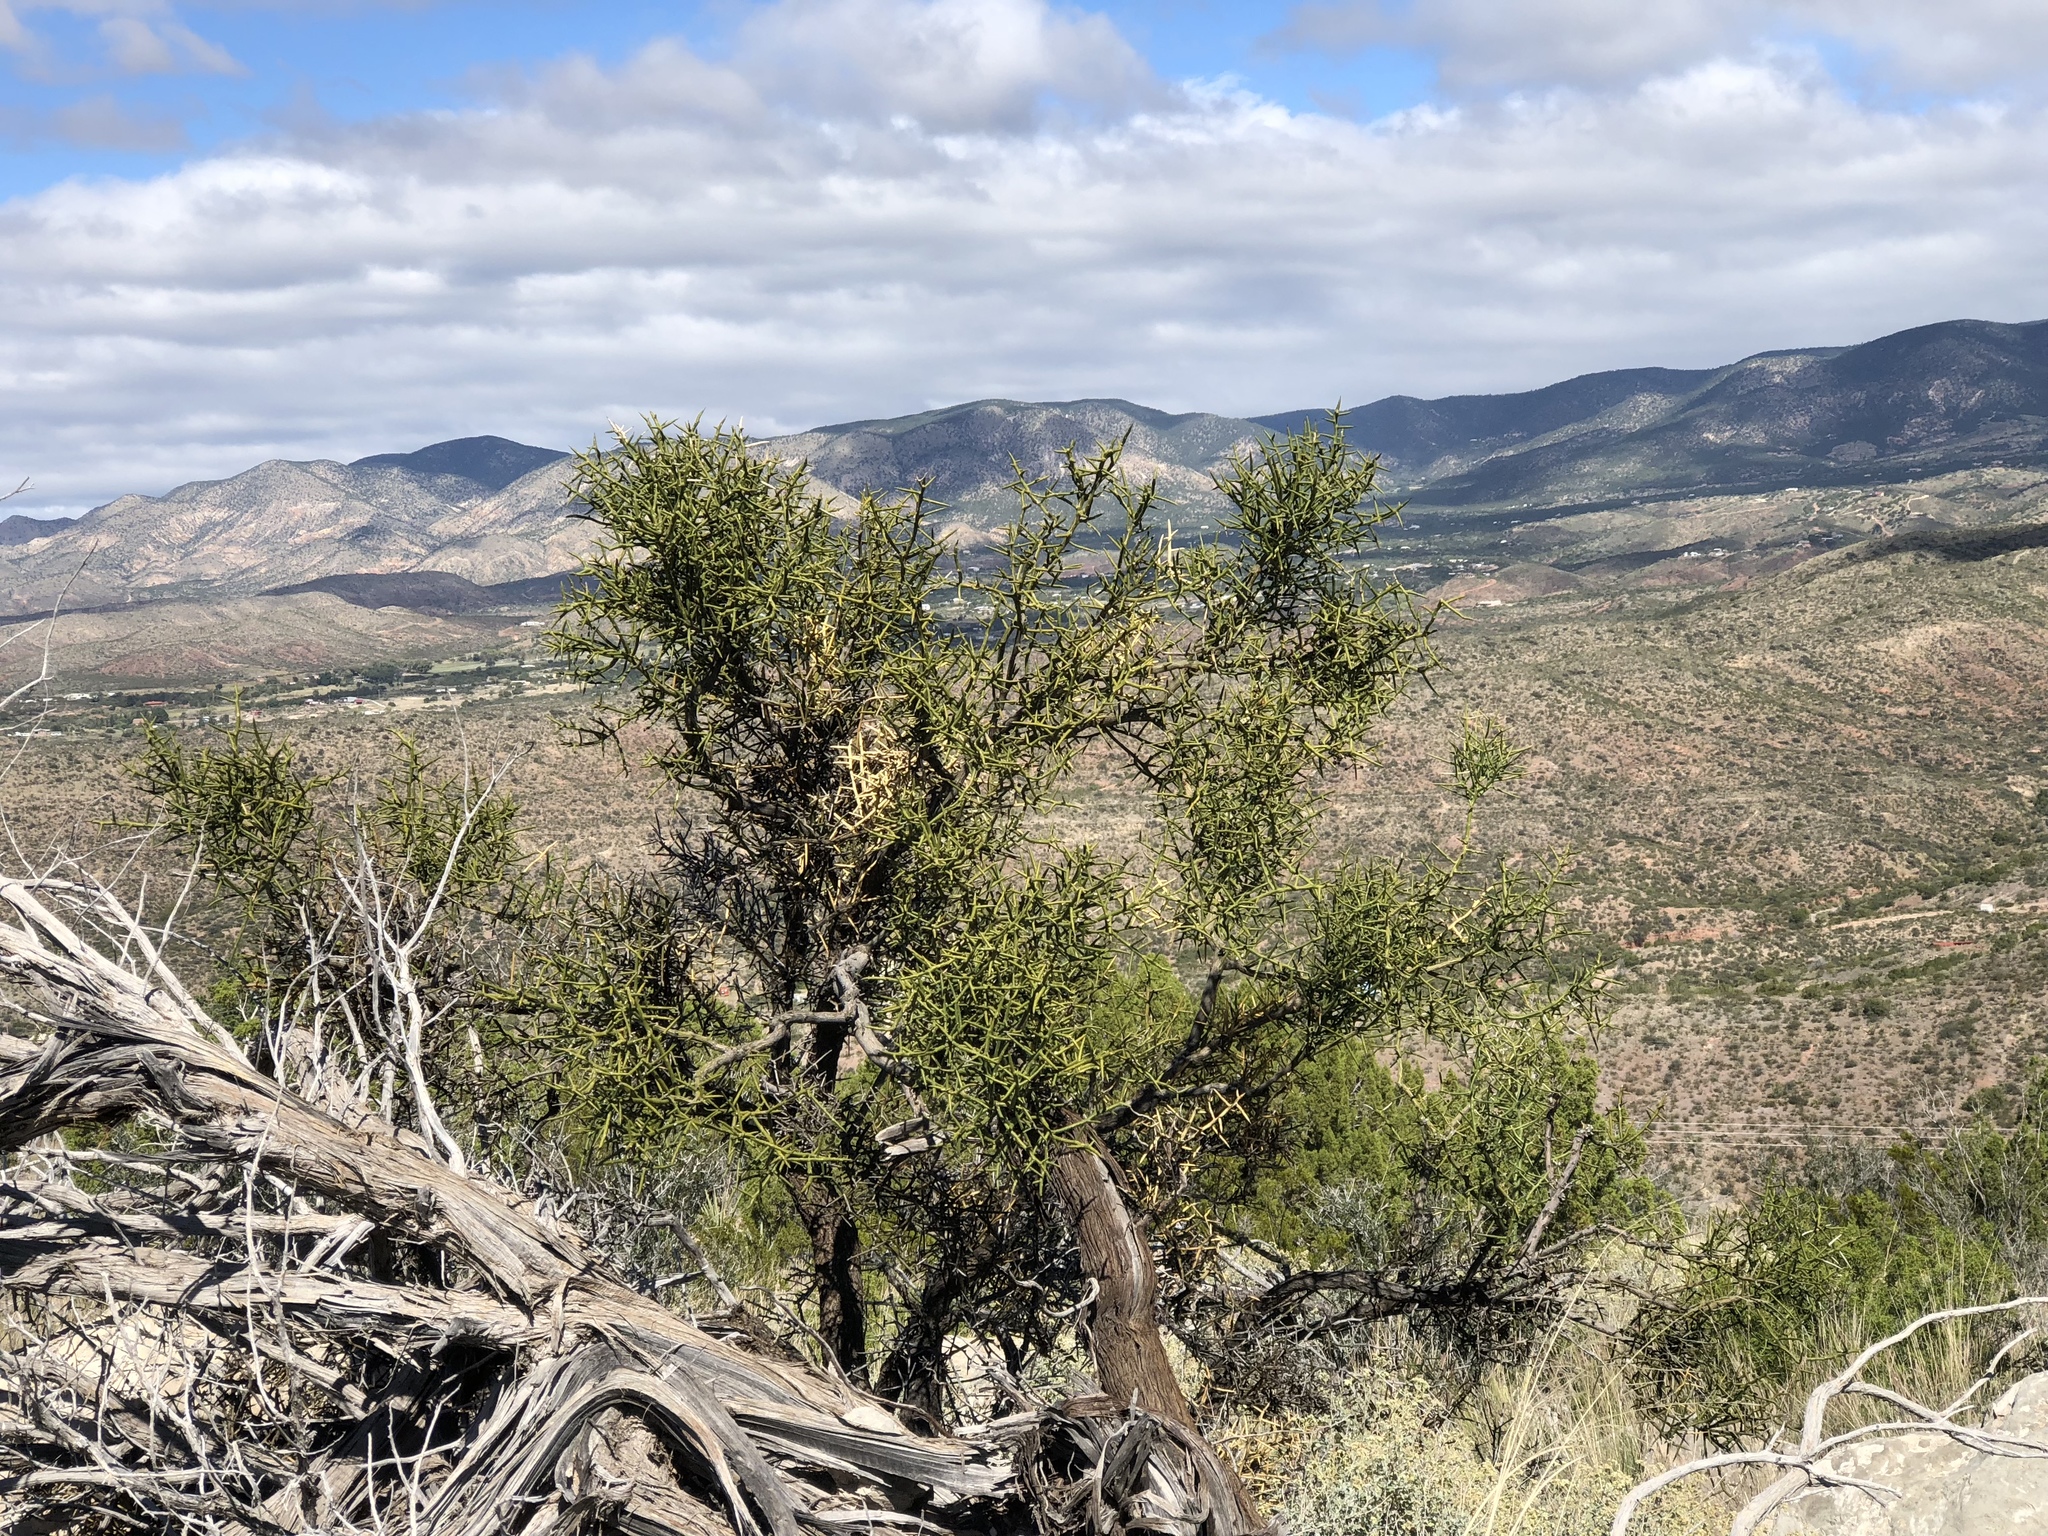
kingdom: Plantae
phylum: Tracheophyta
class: Magnoliopsida
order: Brassicales
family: Koeberliniaceae
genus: Koeberlinia
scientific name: Koeberlinia spinosa
